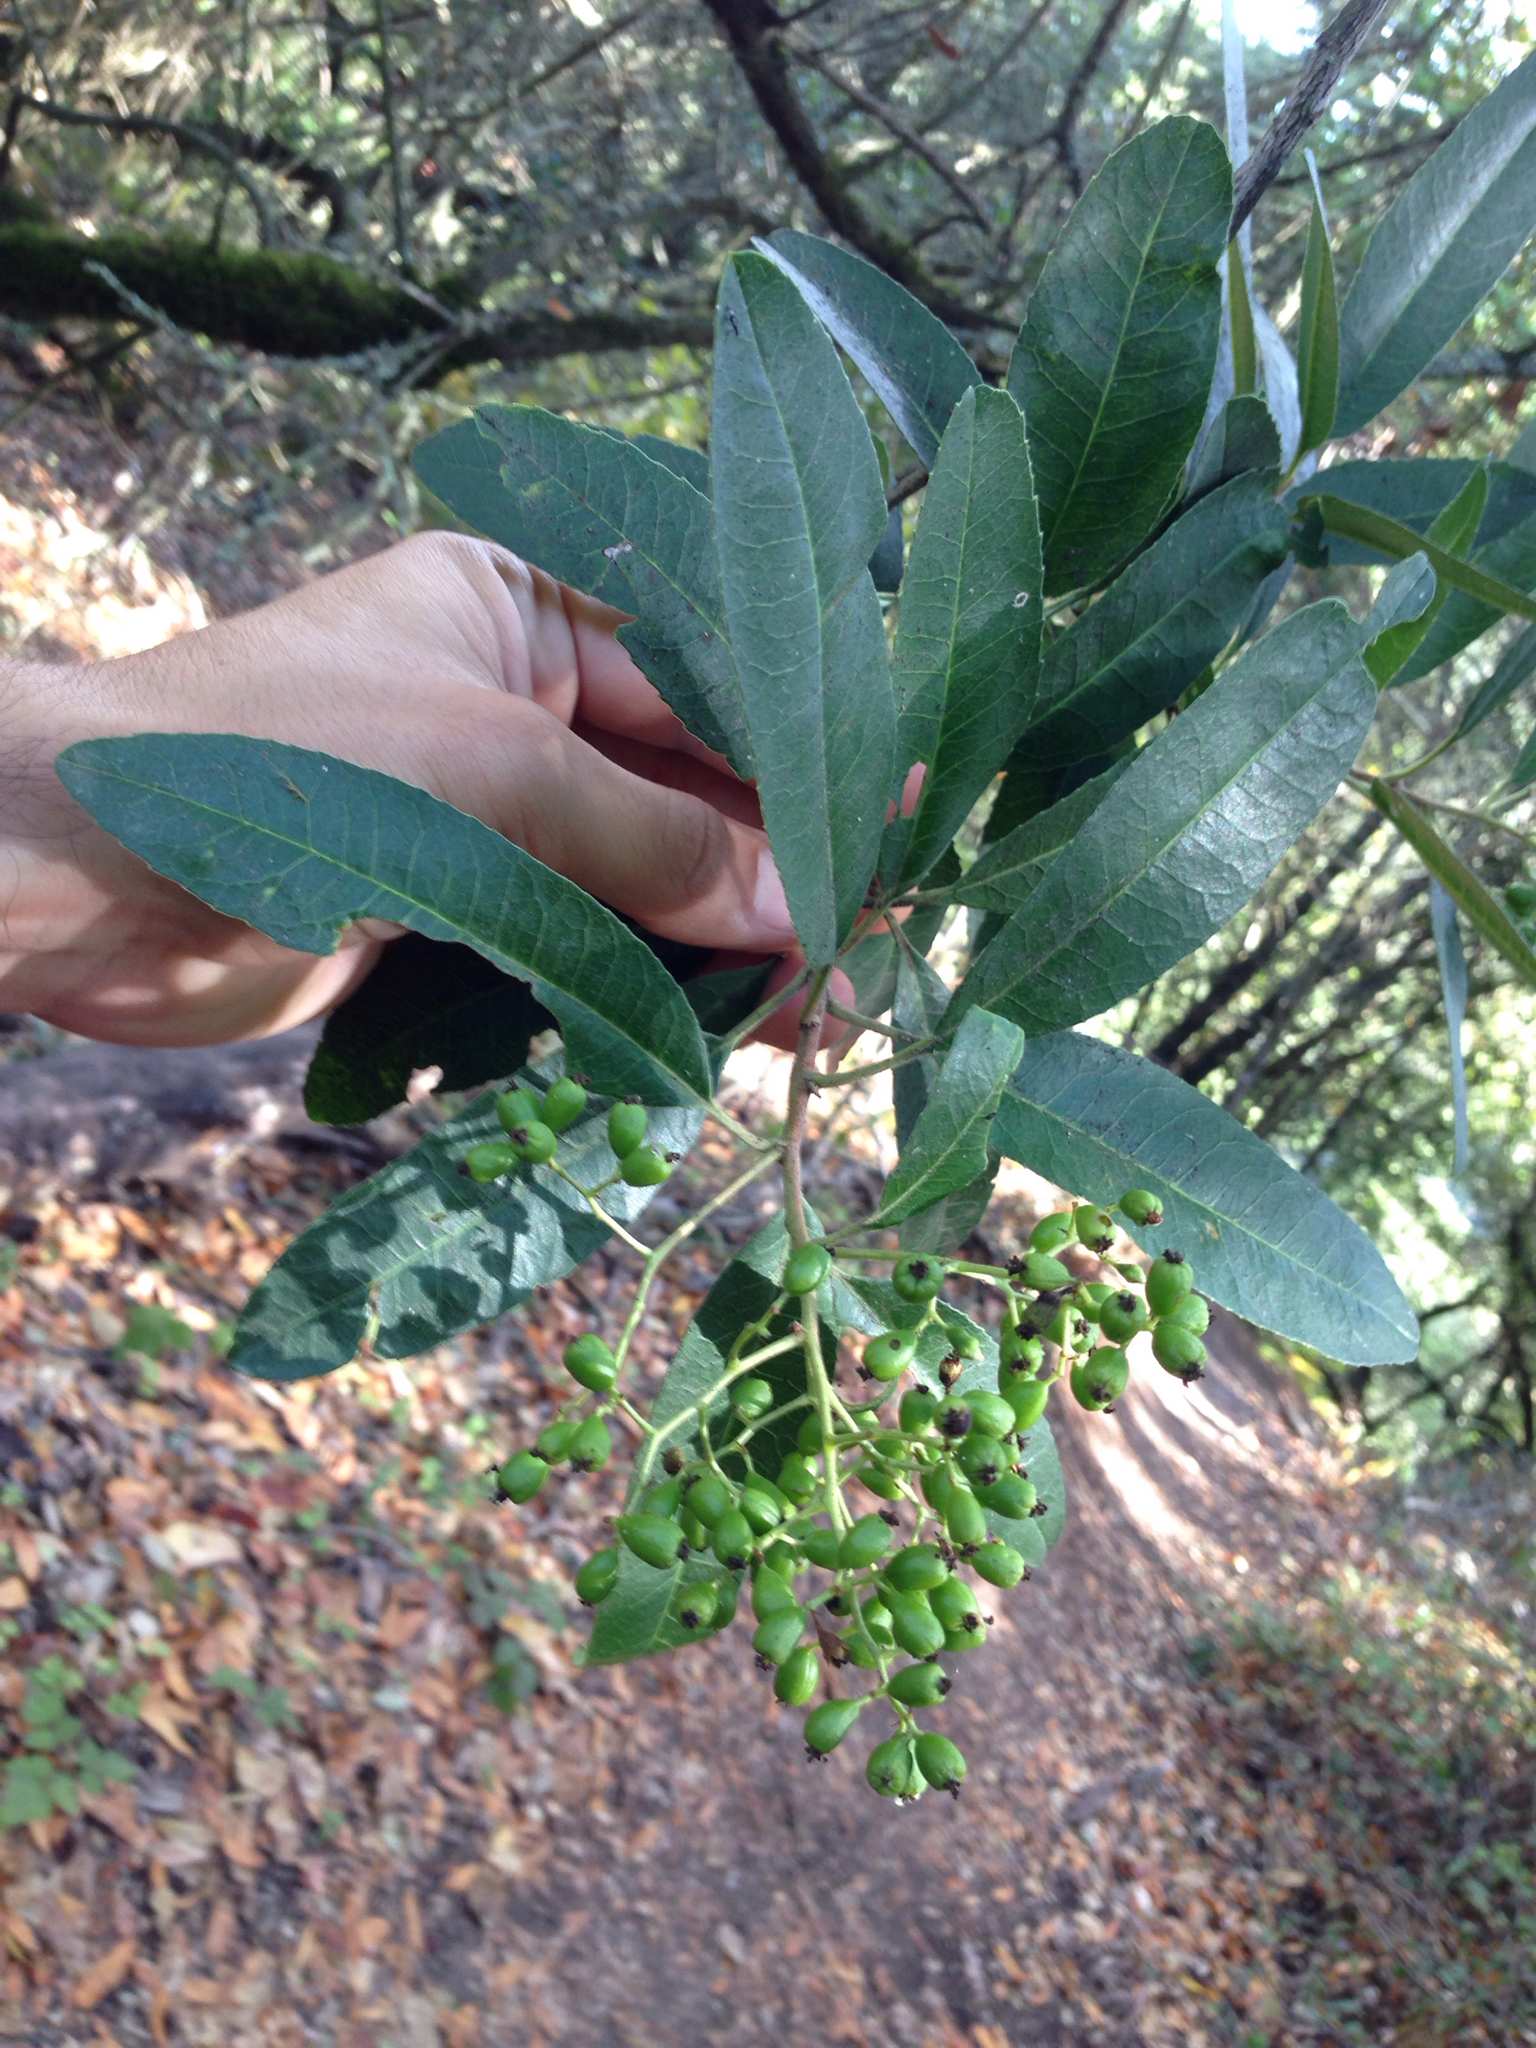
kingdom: Plantae
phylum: Tracheophyta
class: Magnoliopsida
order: Rosales
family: Rosaceae
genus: Heteromeles
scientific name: Heteromeles arbutifolia
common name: California-holly
